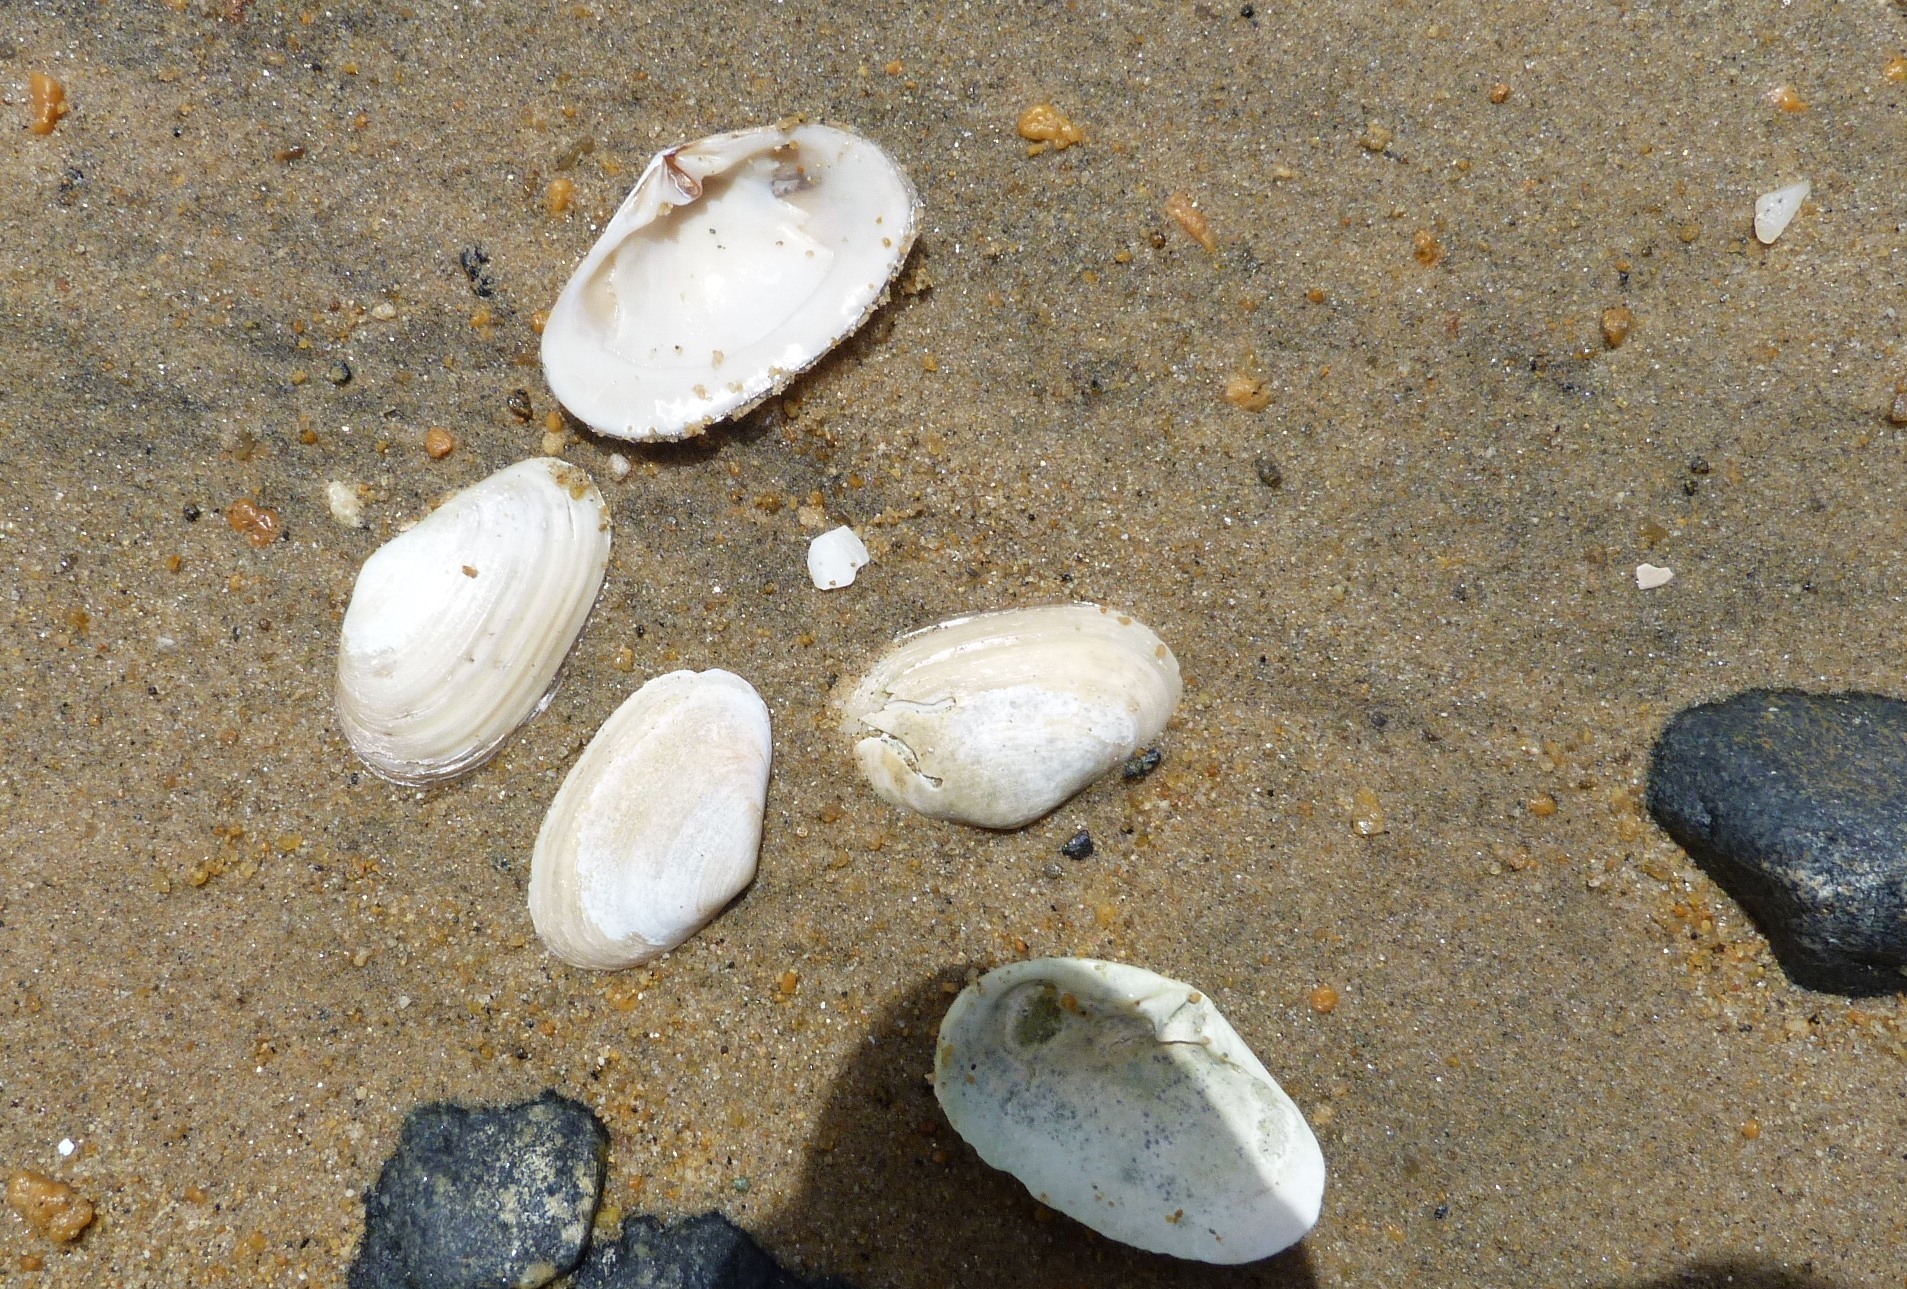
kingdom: Animalia
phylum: Mollusca
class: Bivalvia
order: Venerida
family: Mesodesmatidae
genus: Paphies
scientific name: Paphies australis
